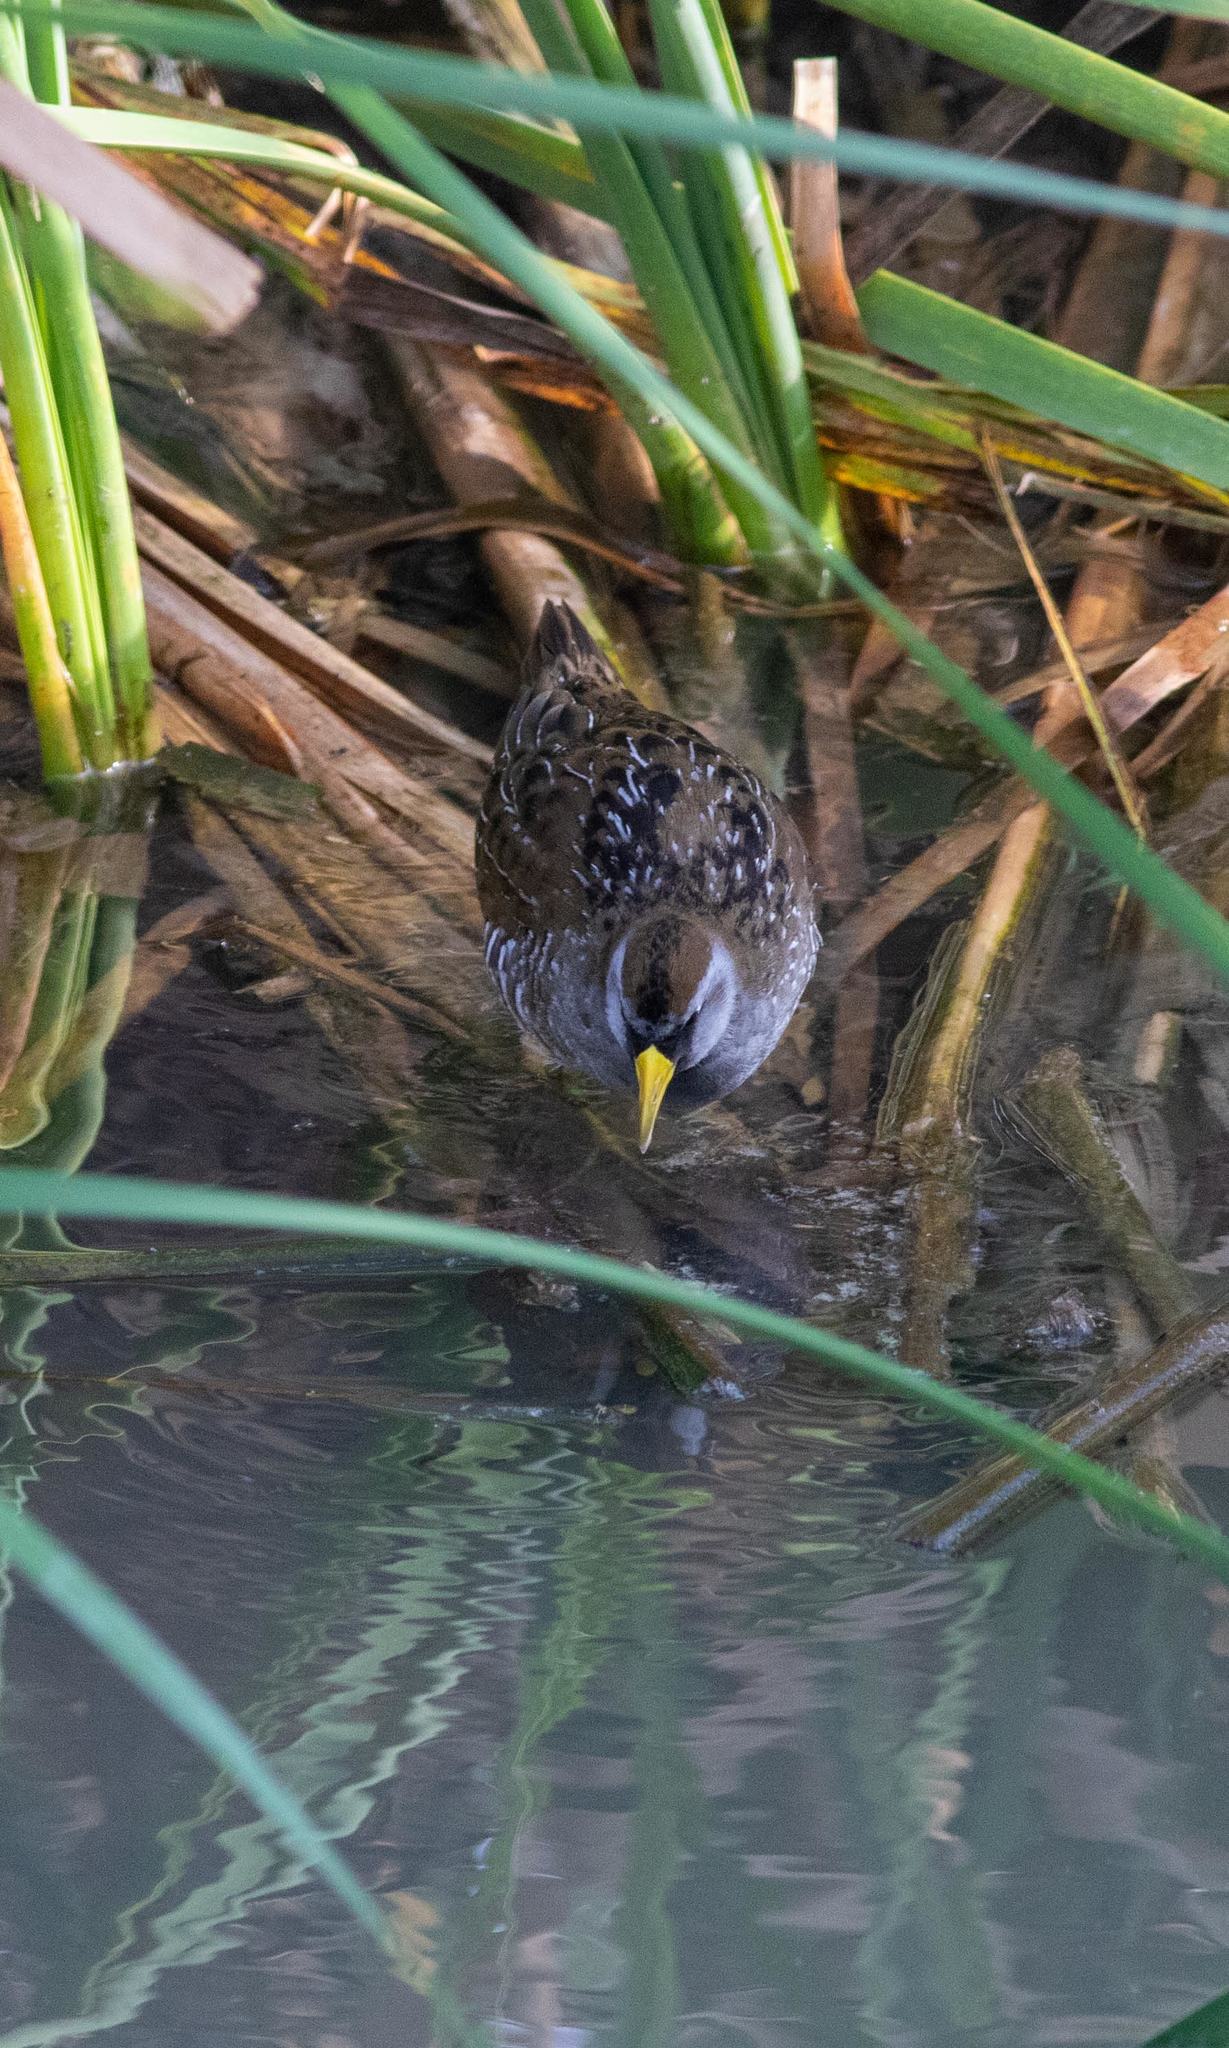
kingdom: Animalia
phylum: Chordata
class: Aves
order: Gruiformes
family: Rallidae
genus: Porzana
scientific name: Porzana carolina
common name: Sora
